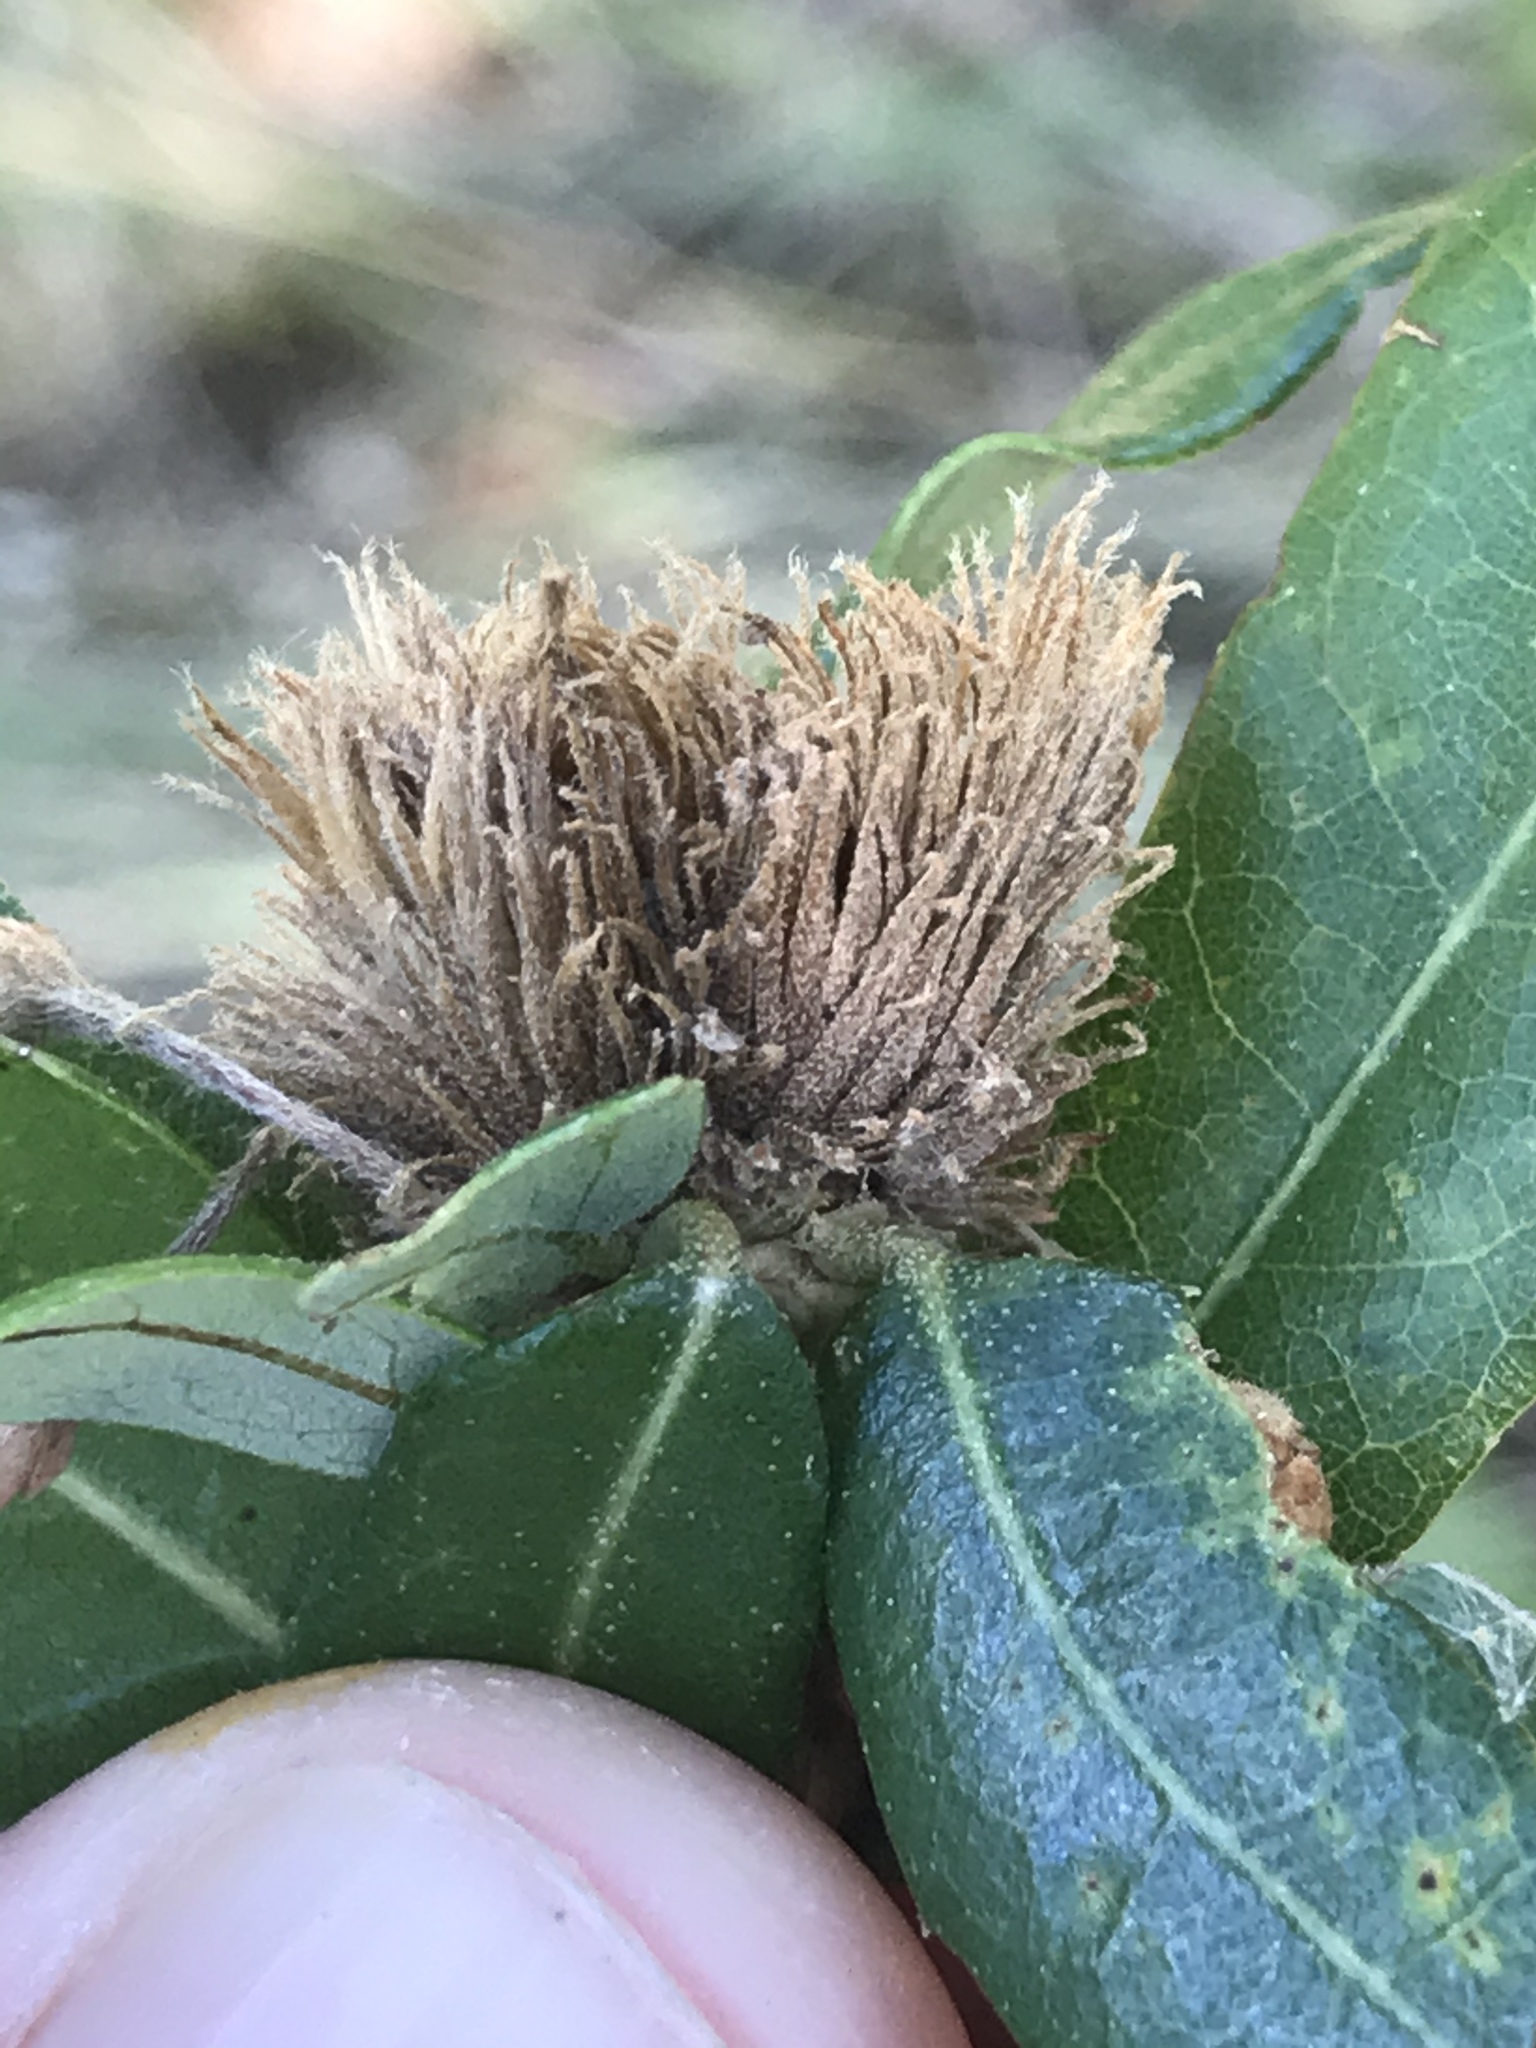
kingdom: Animalia
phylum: Arthropoda
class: Insecta
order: Hymenoptera
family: Cynipidae
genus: Andricus
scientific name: Andricus quercusfoliatus
